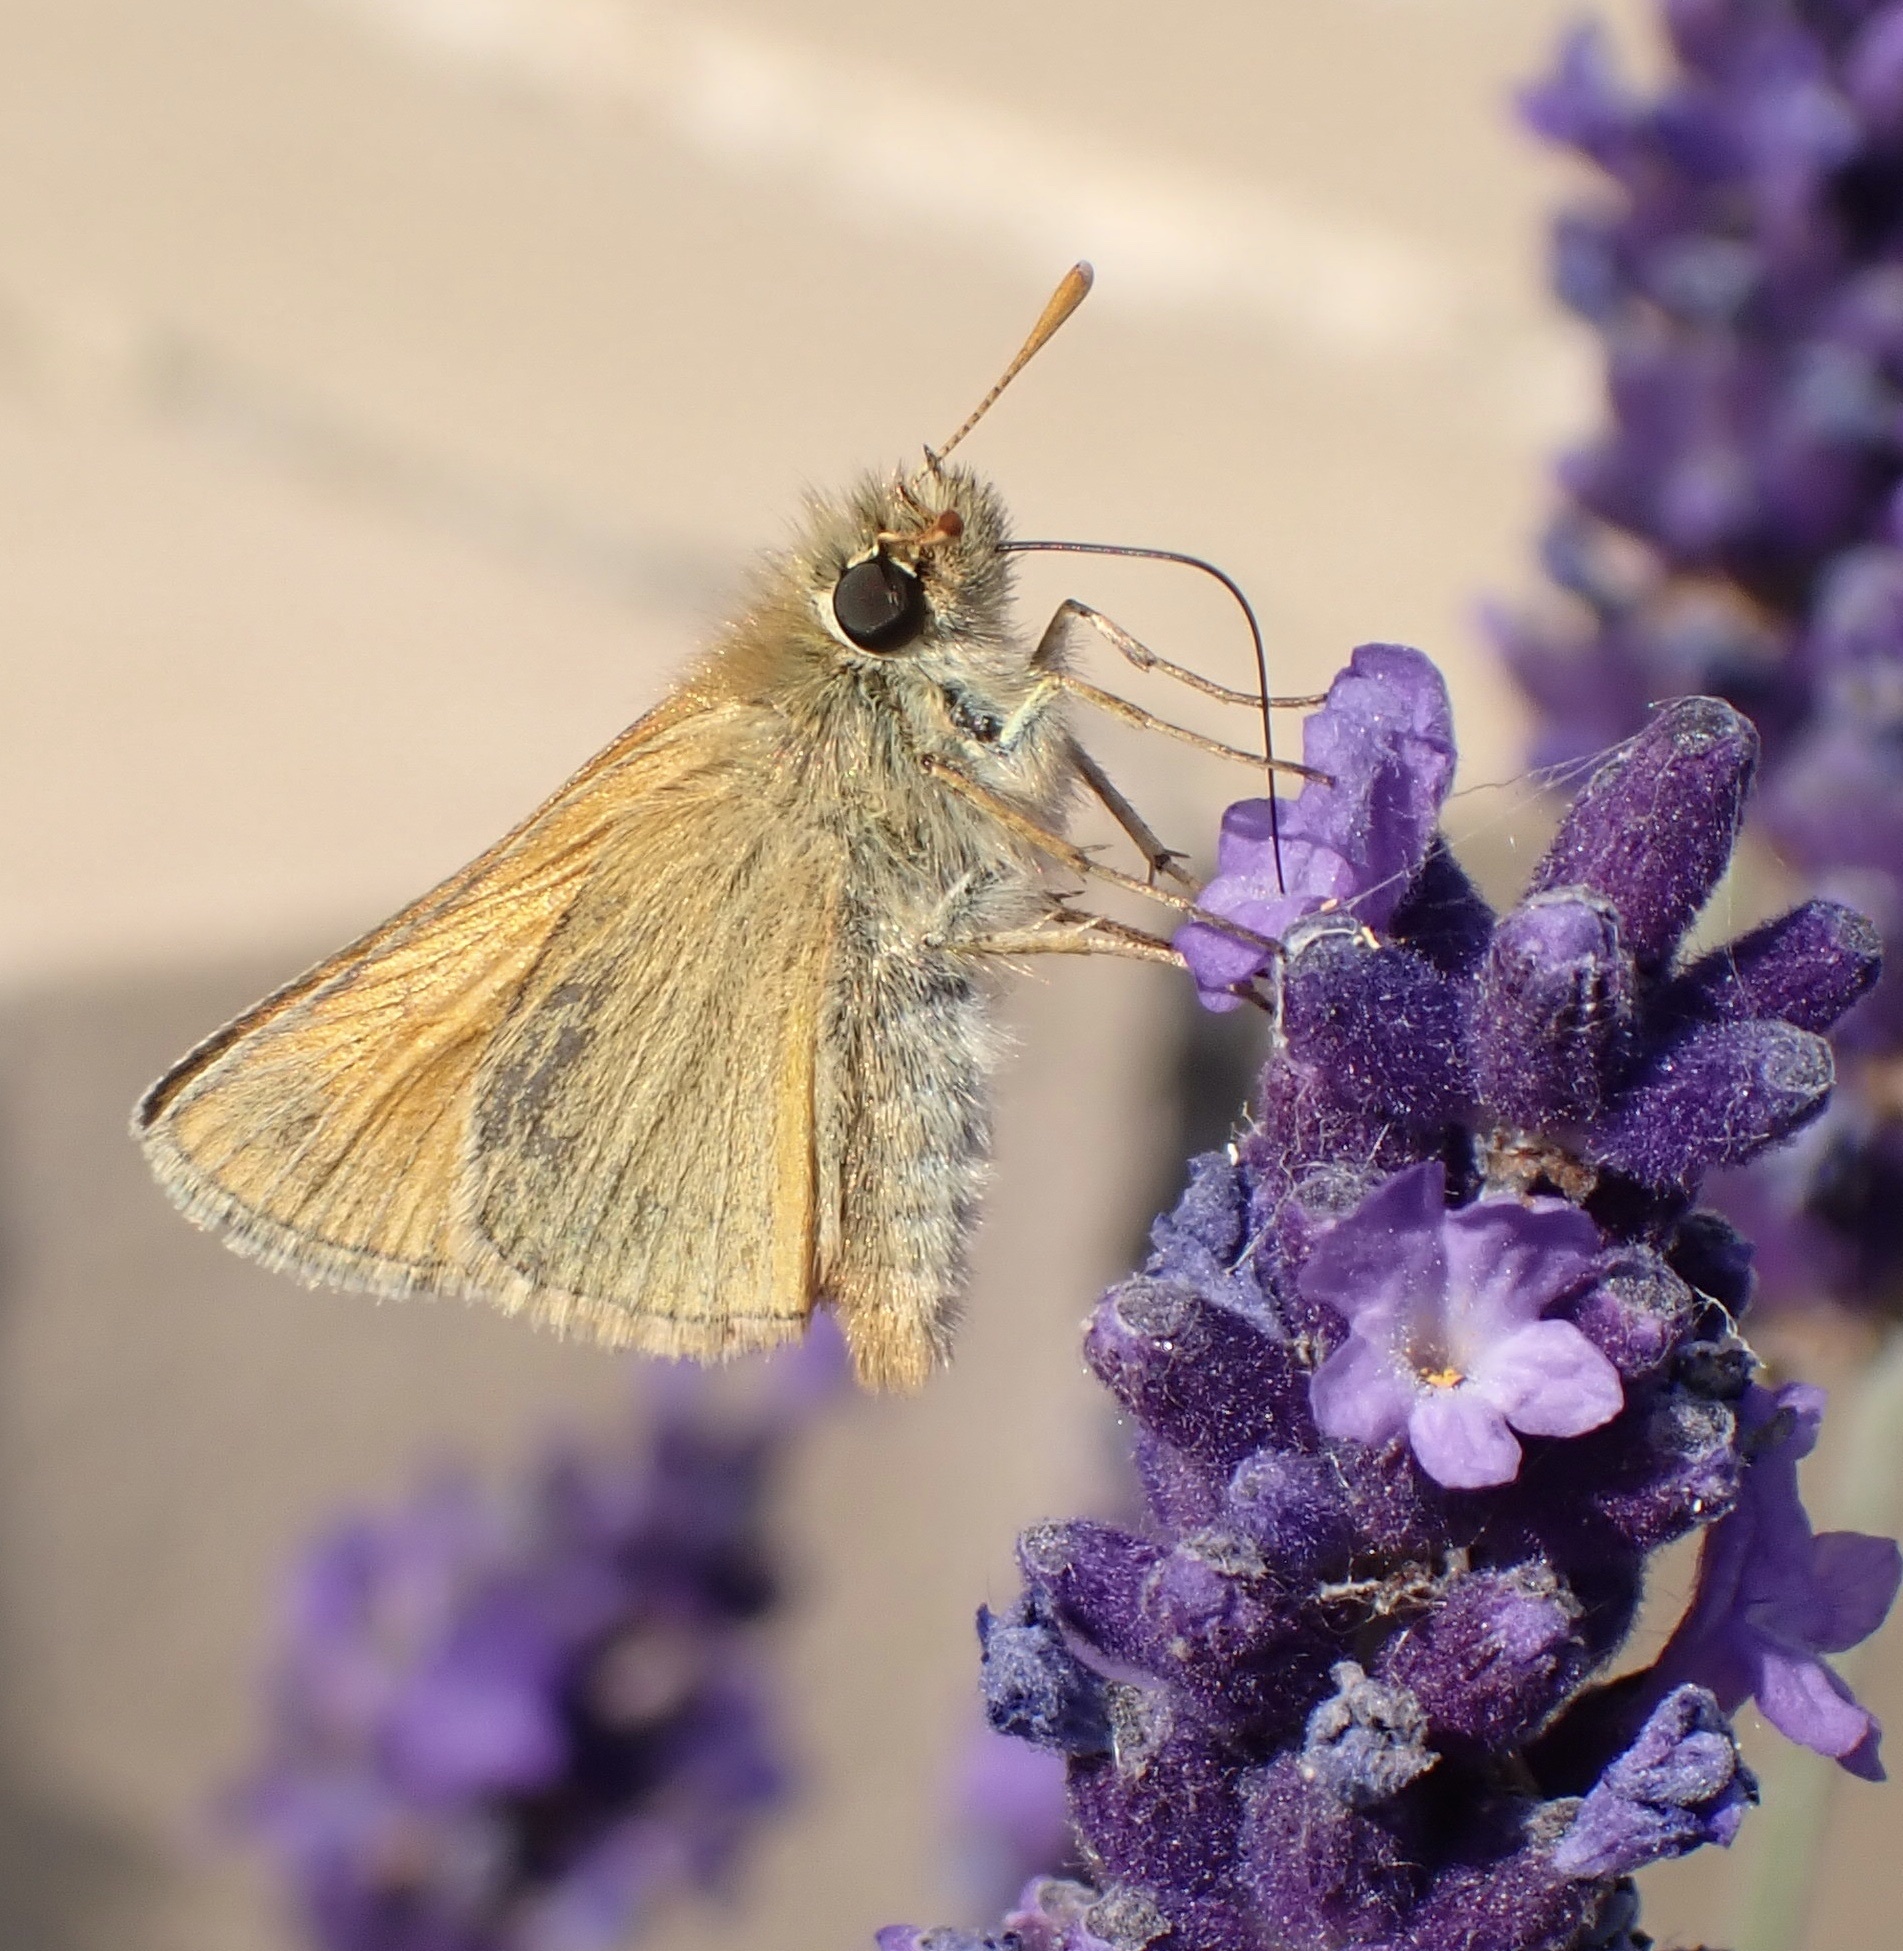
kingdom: Animalia
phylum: Arthropoda
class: Insecta
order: Lepidoptera
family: Hesperiidae
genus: Thymelicus
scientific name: Thymelicus sylvestris
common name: Small skipper
